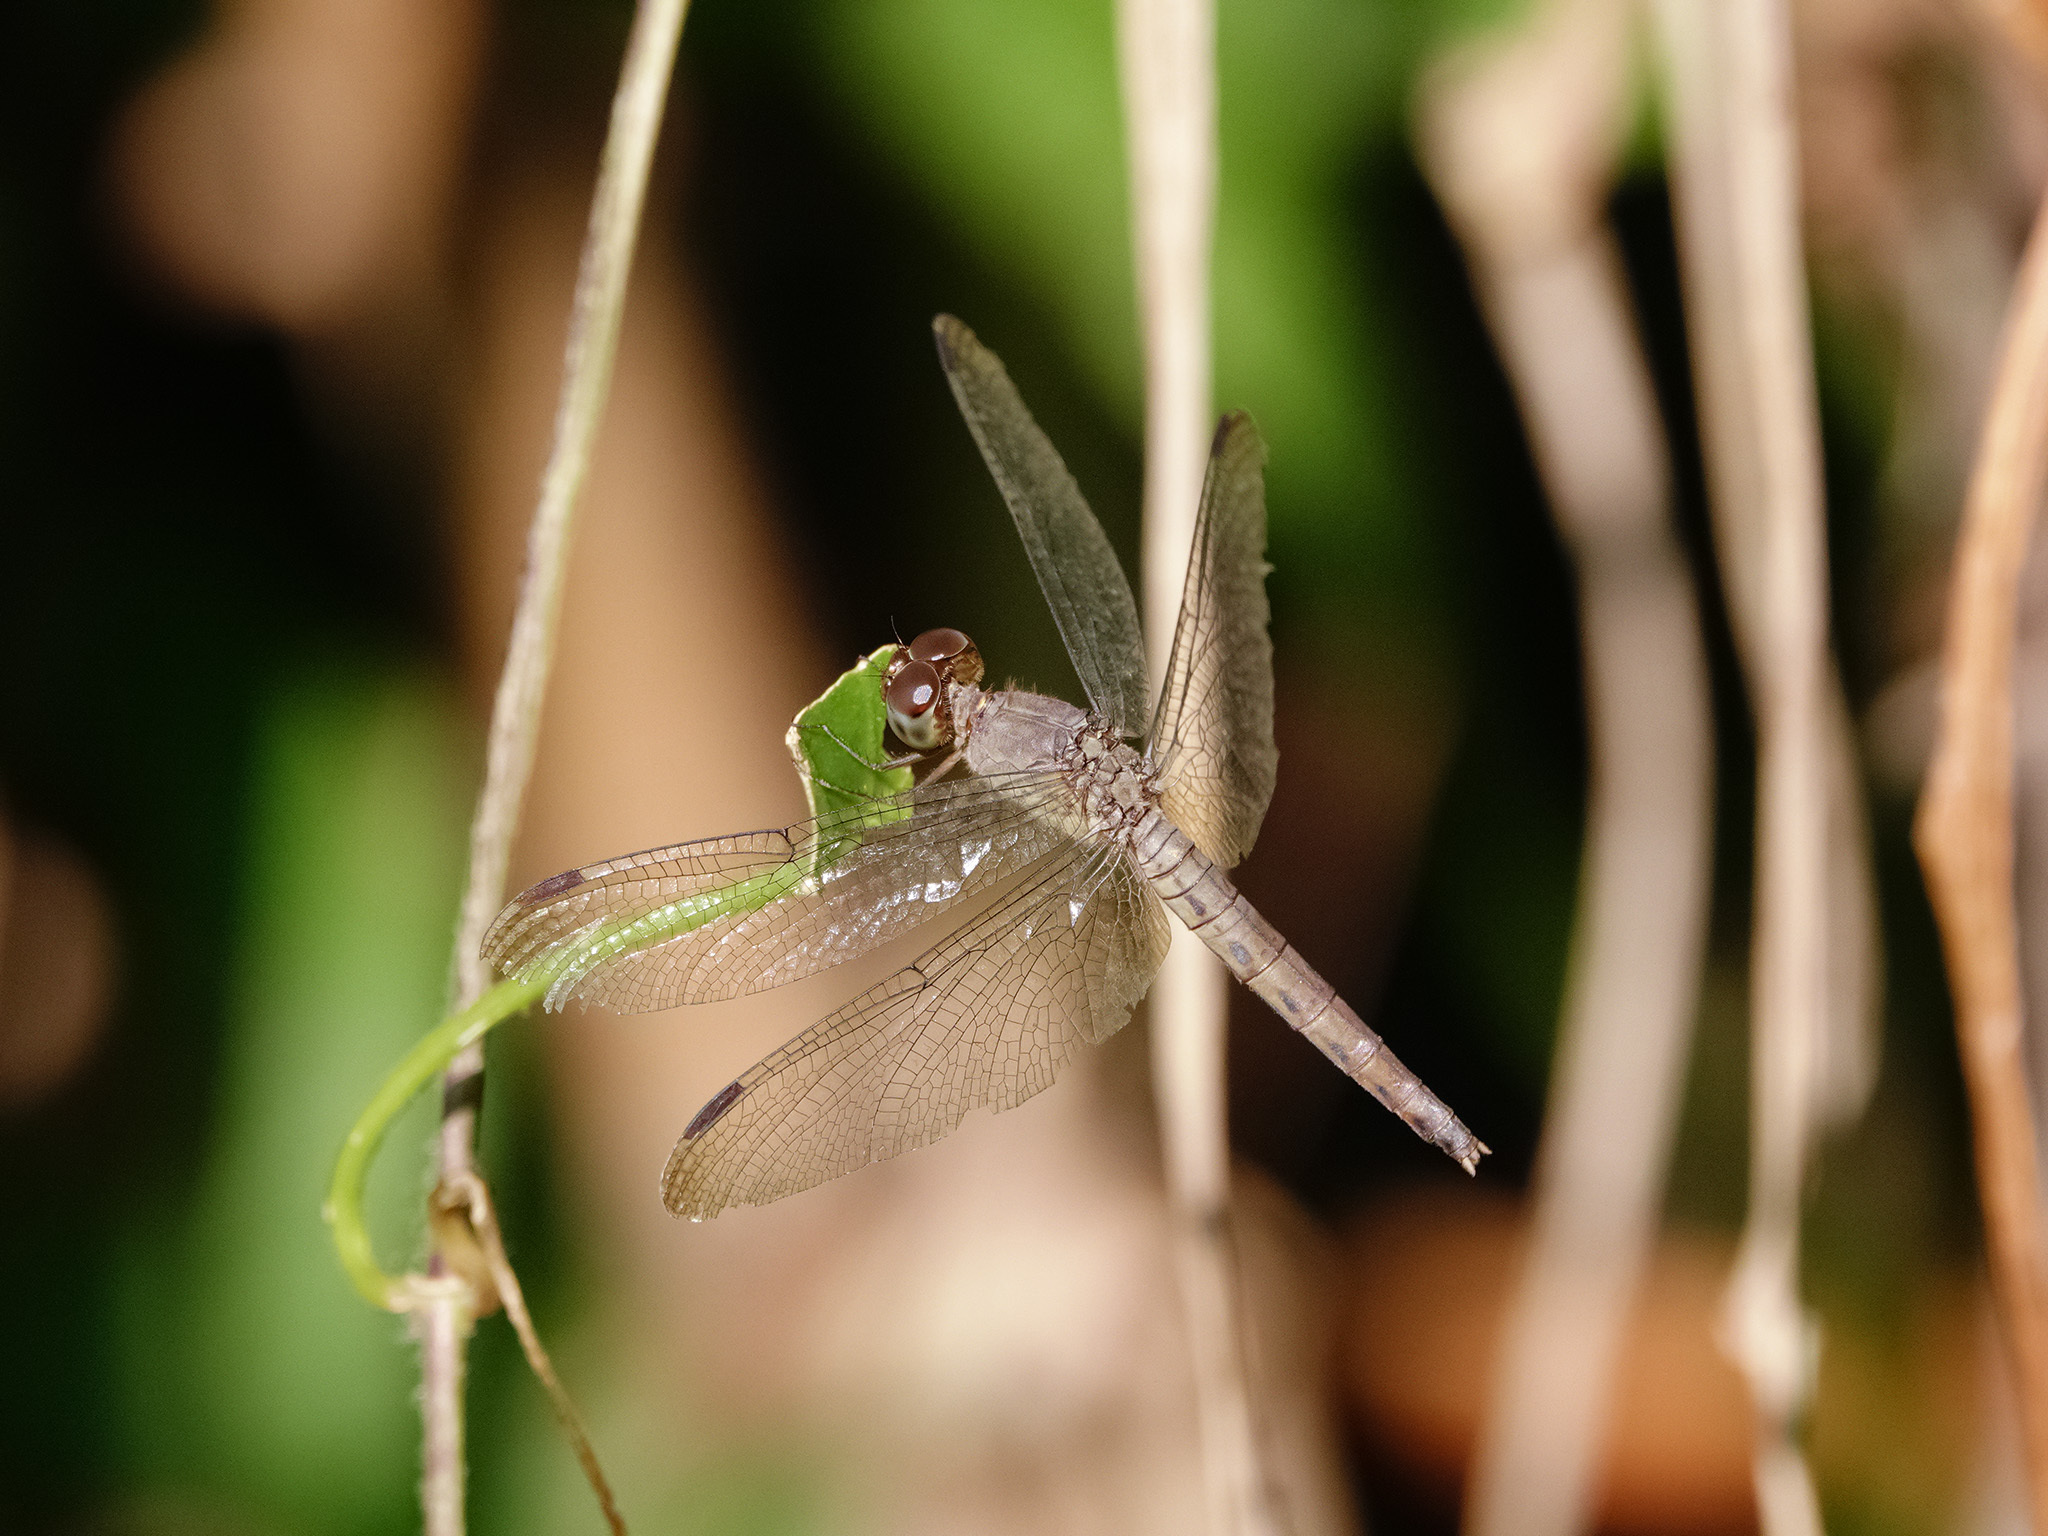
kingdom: Animalia
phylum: Arthropoda
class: Insecta
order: Odonata
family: Libellulidae
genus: Neurothemis
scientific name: Neurothemis fluctuans
